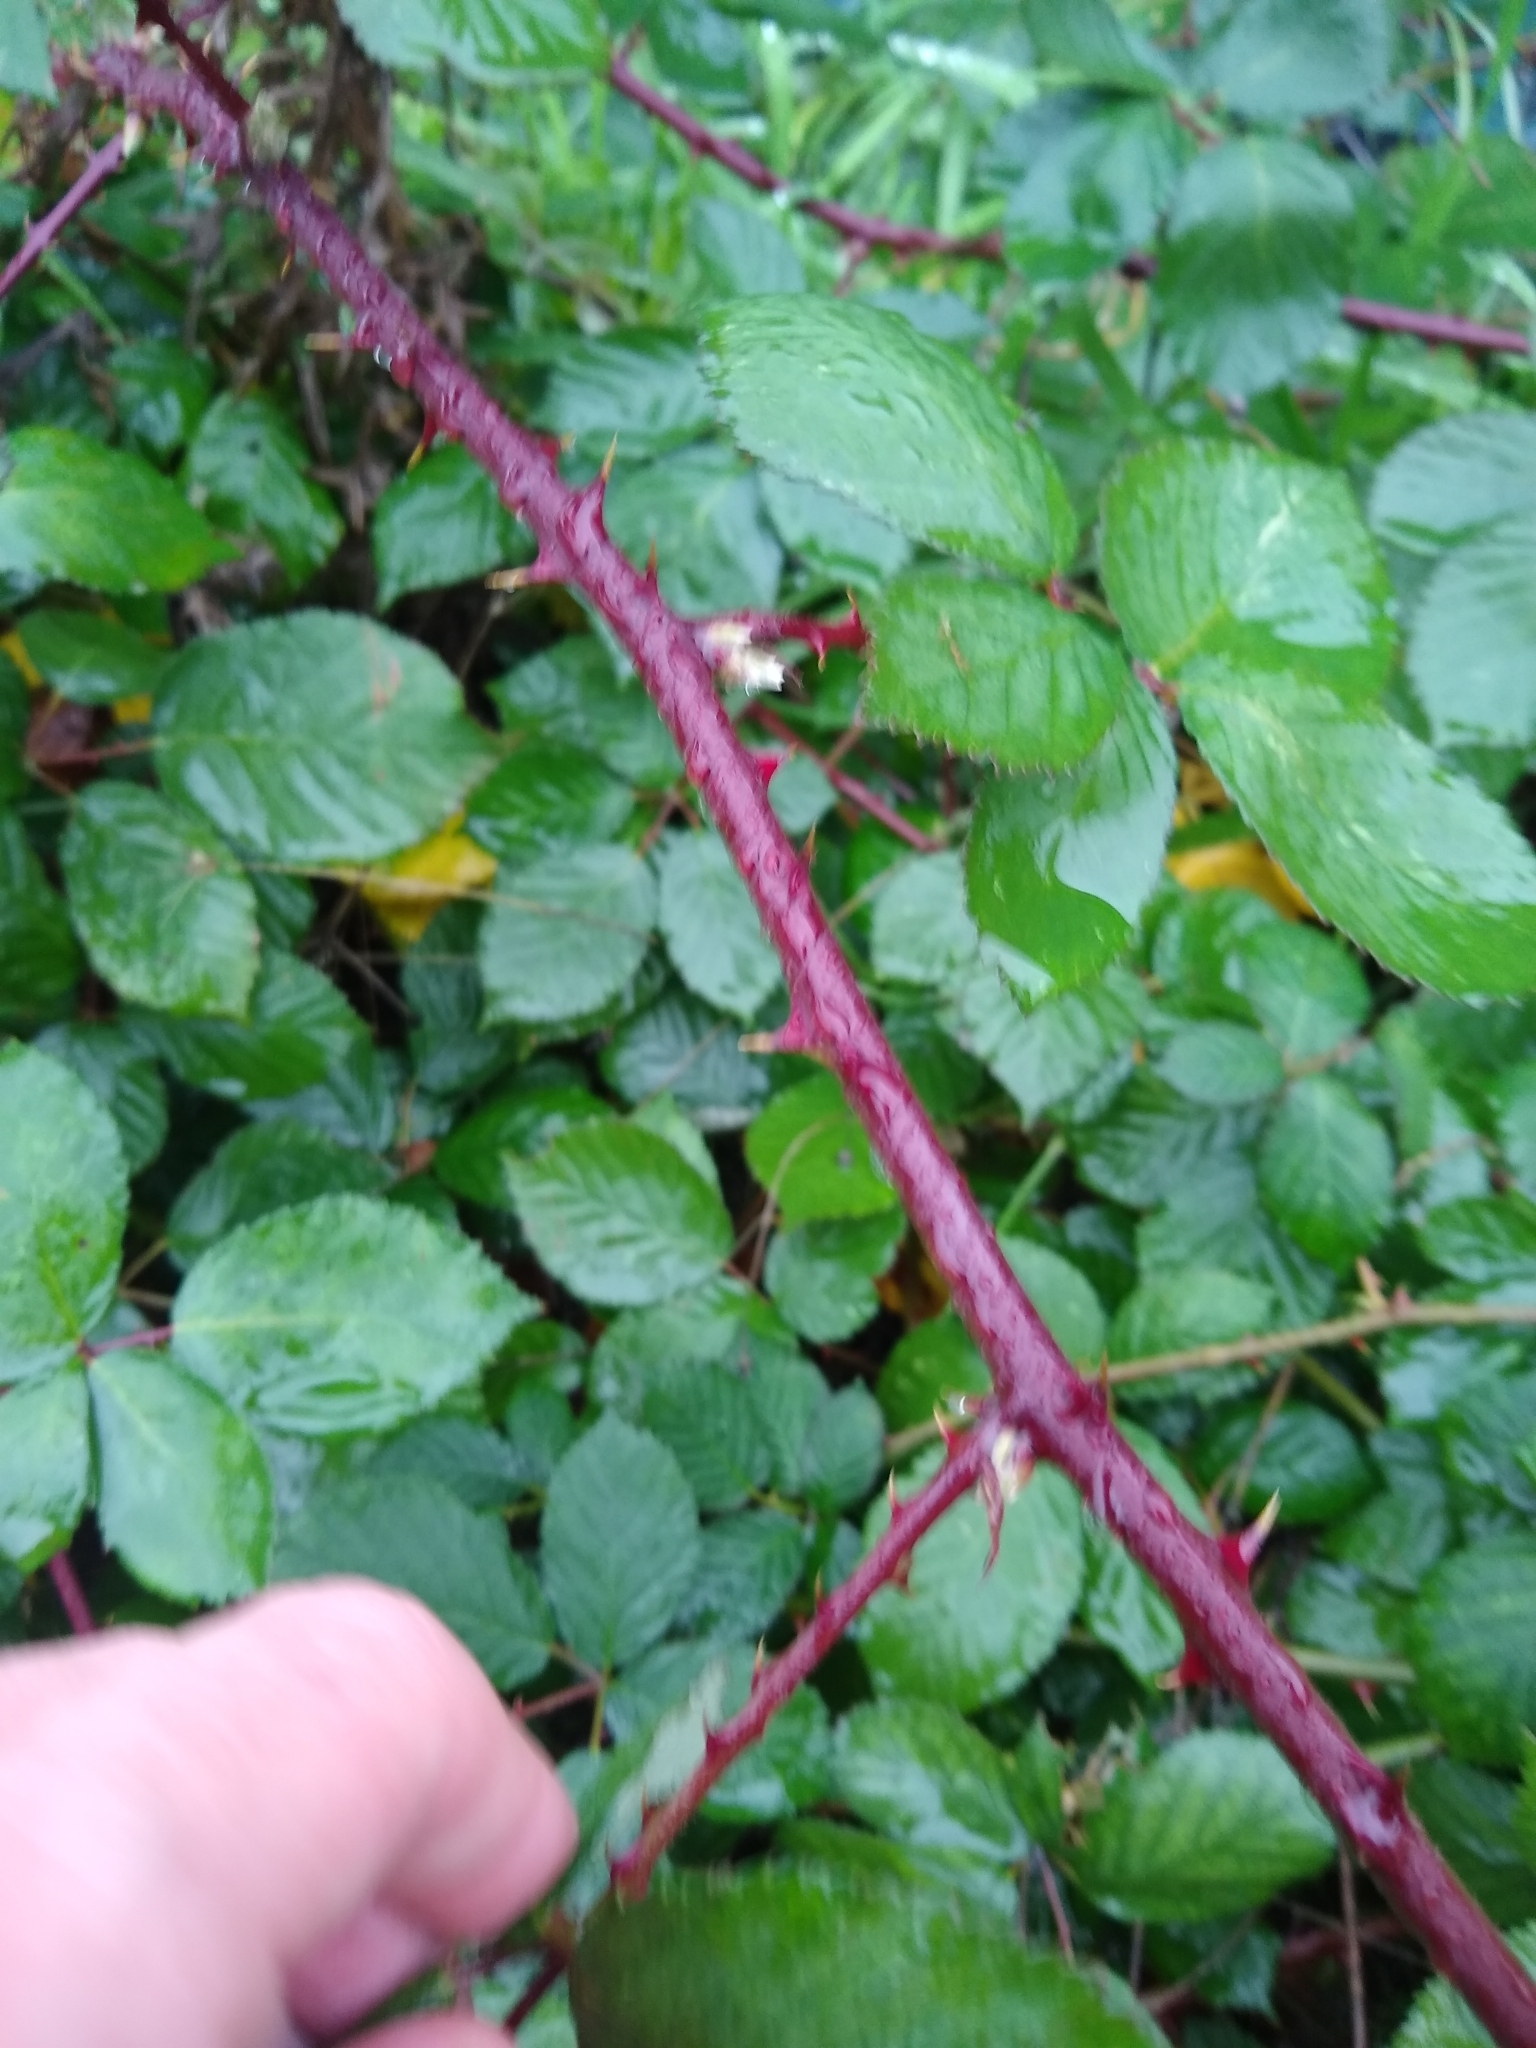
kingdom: Plantae
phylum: Tracheophyta
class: Magnoliopsida
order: Rosales
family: Rosaceae
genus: Rubus
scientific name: Rubus bifrons
